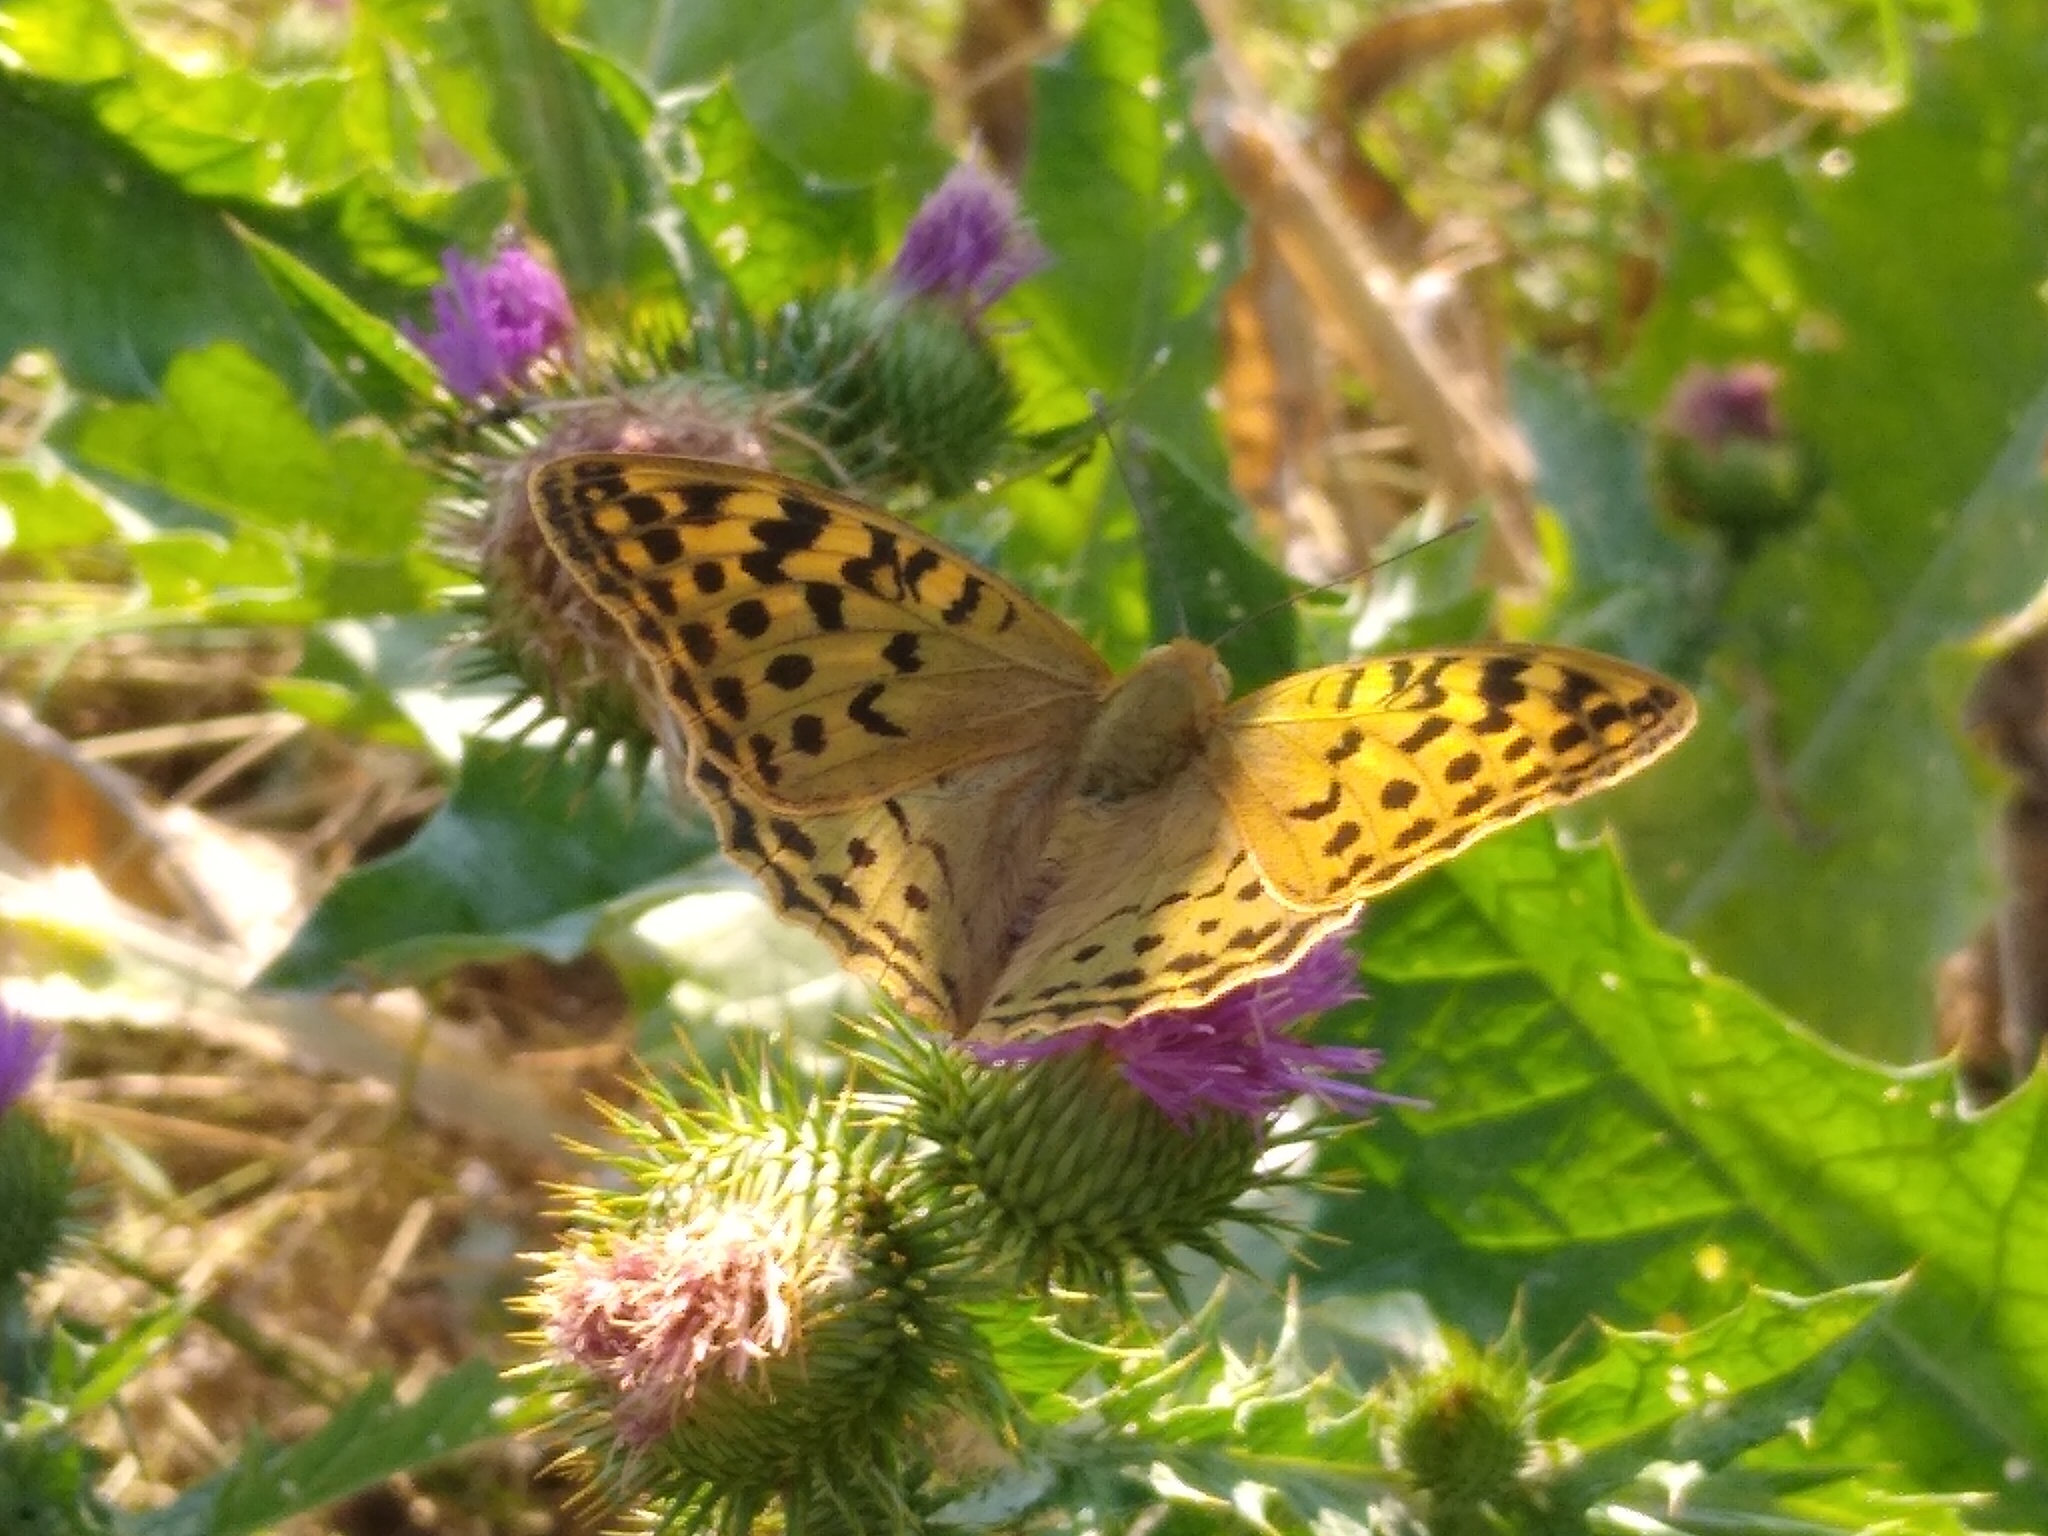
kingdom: Animalia
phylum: Arthropoda
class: Insecta
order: Lepidoptera
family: Nymphalidae
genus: Damora
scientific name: Damora pandora
